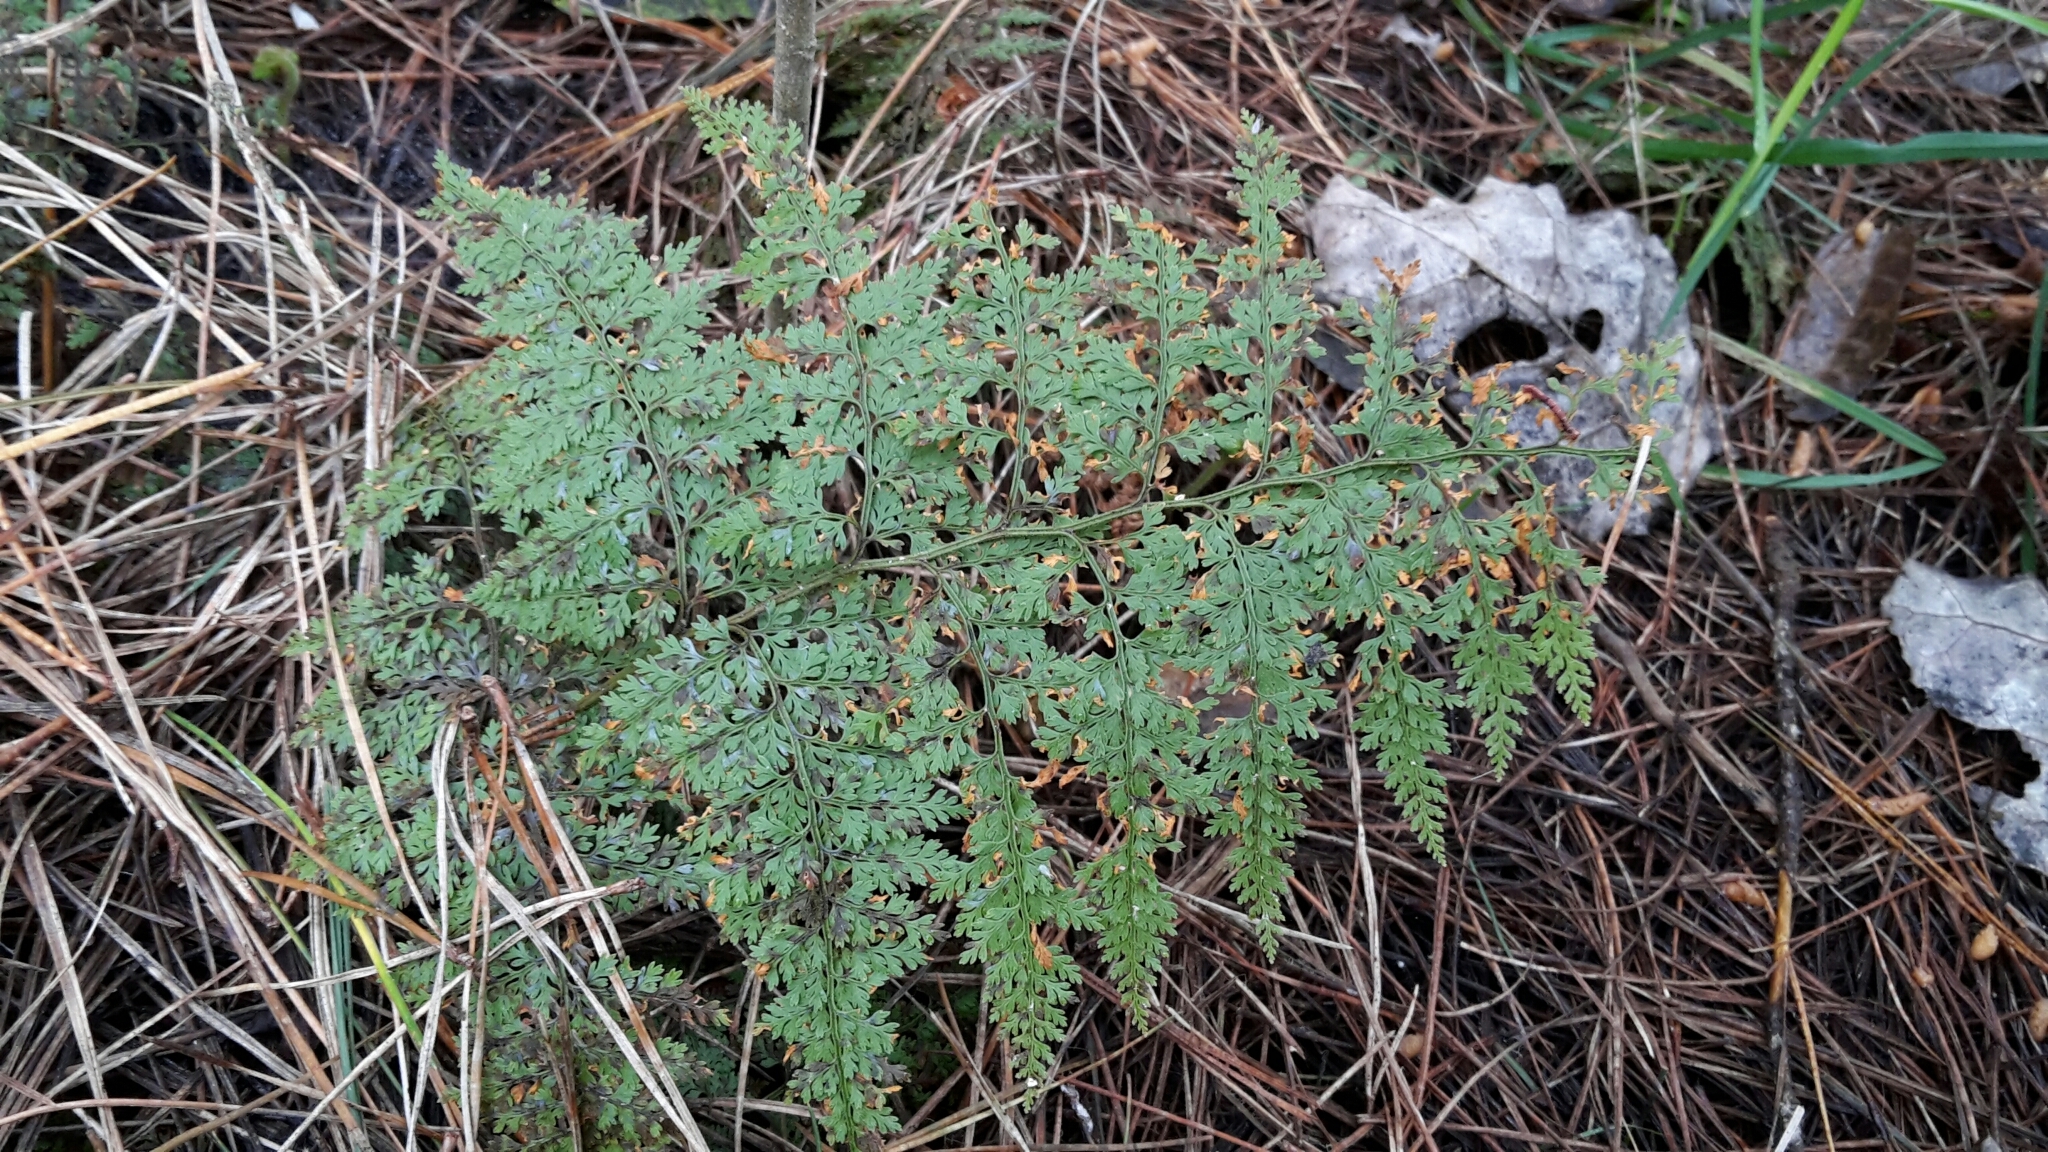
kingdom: Plantae
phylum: Tracheophyta
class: Polypodiopsida
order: Polypodiales
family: Dennstaedtiaceae
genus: Paesia
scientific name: Paesia scaberula
